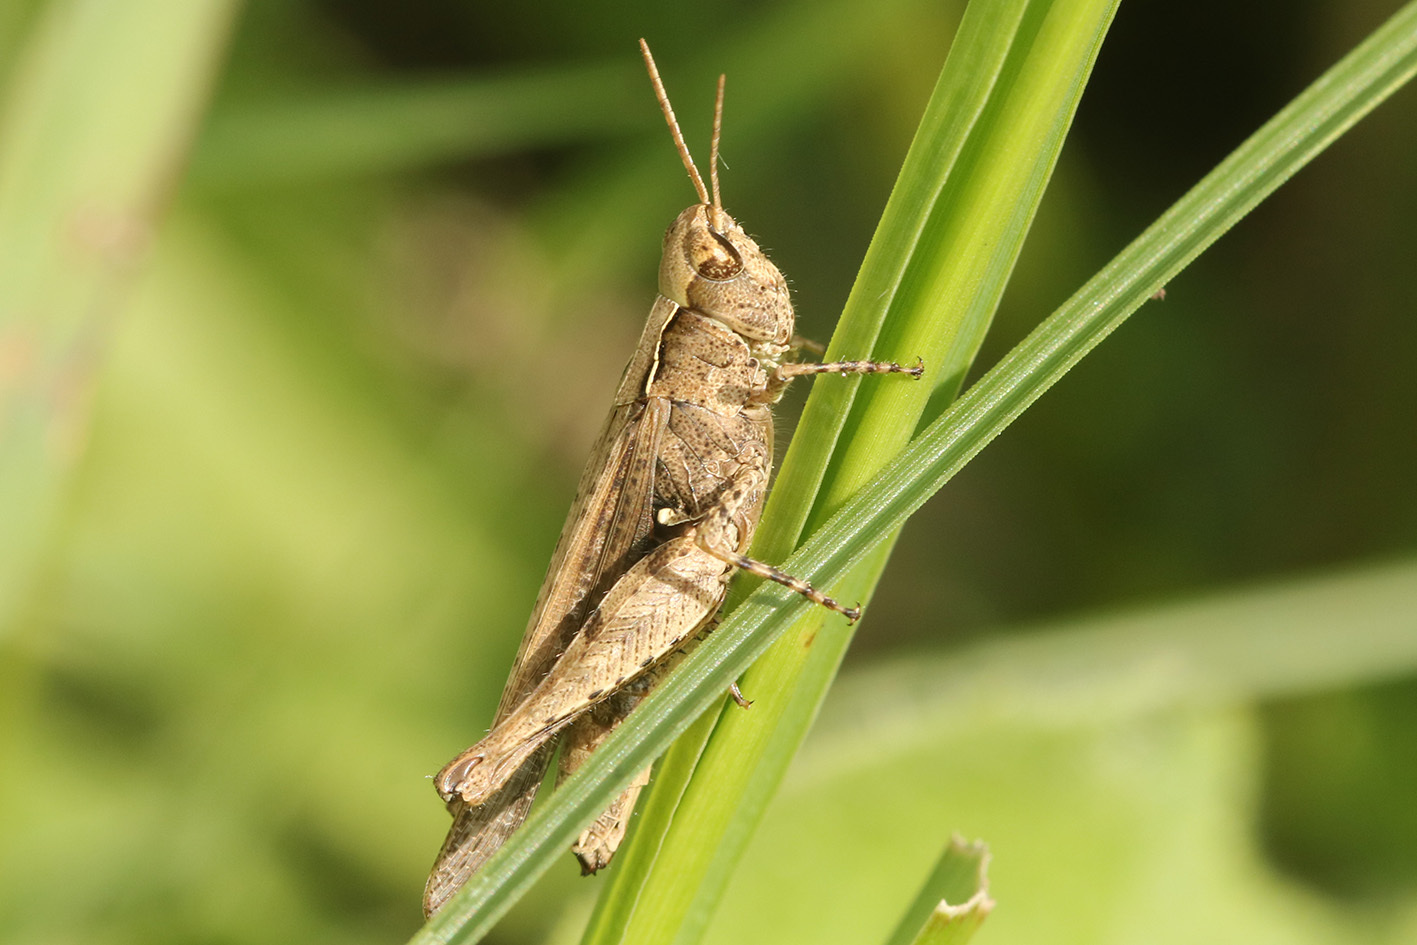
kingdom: Animalia
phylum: Arthropoda
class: Insecta
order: Orthoptera
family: Acrididae
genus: Orphulella
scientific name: Orphulella punctata
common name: Slant-faced grasshopper
